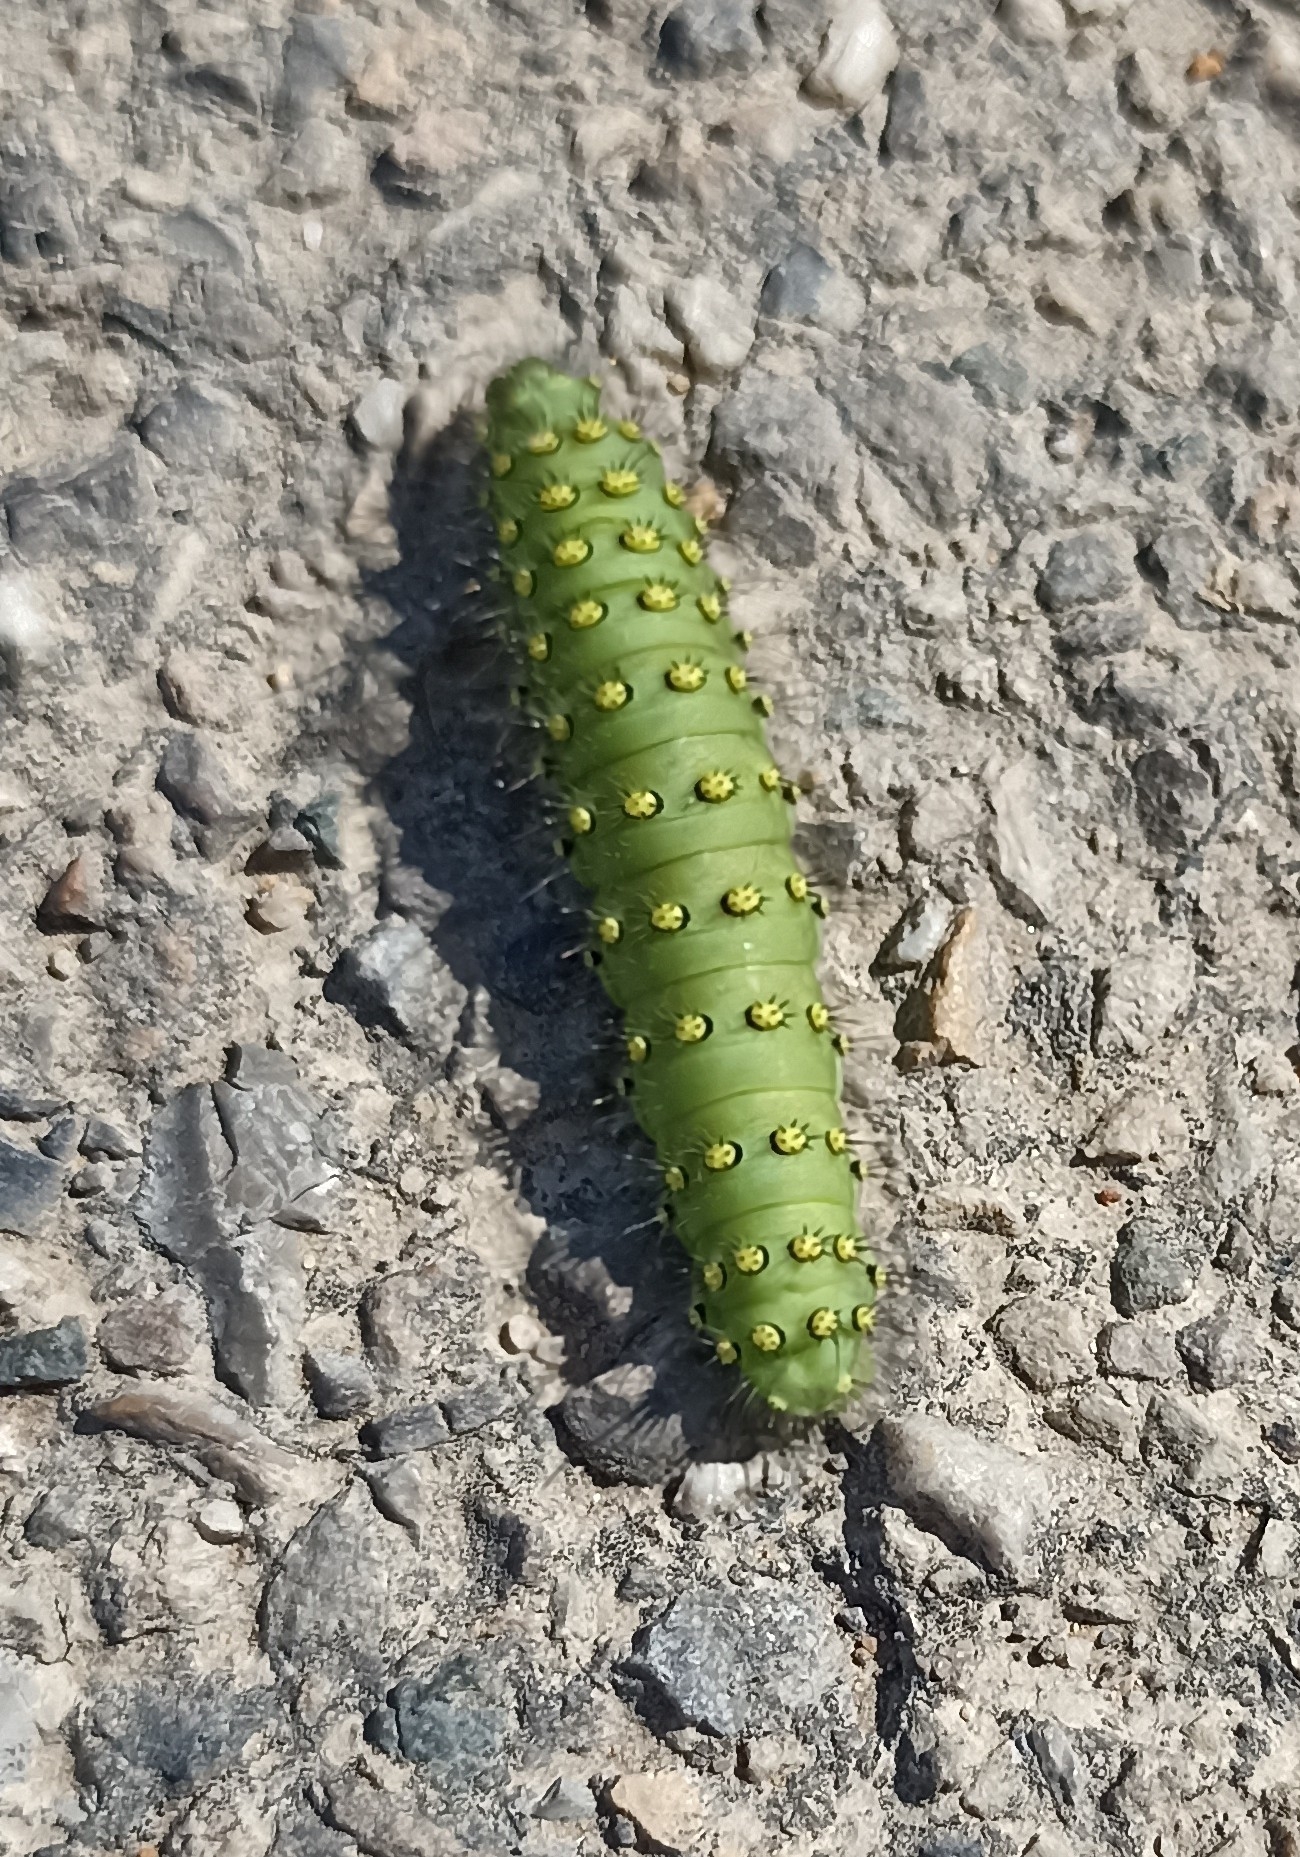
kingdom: Animalia
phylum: Arthropoda
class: Insecta
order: Lepidoptera
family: Saturniidae
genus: Saturnia
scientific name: Saturnia pavonia
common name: Emperor moth
